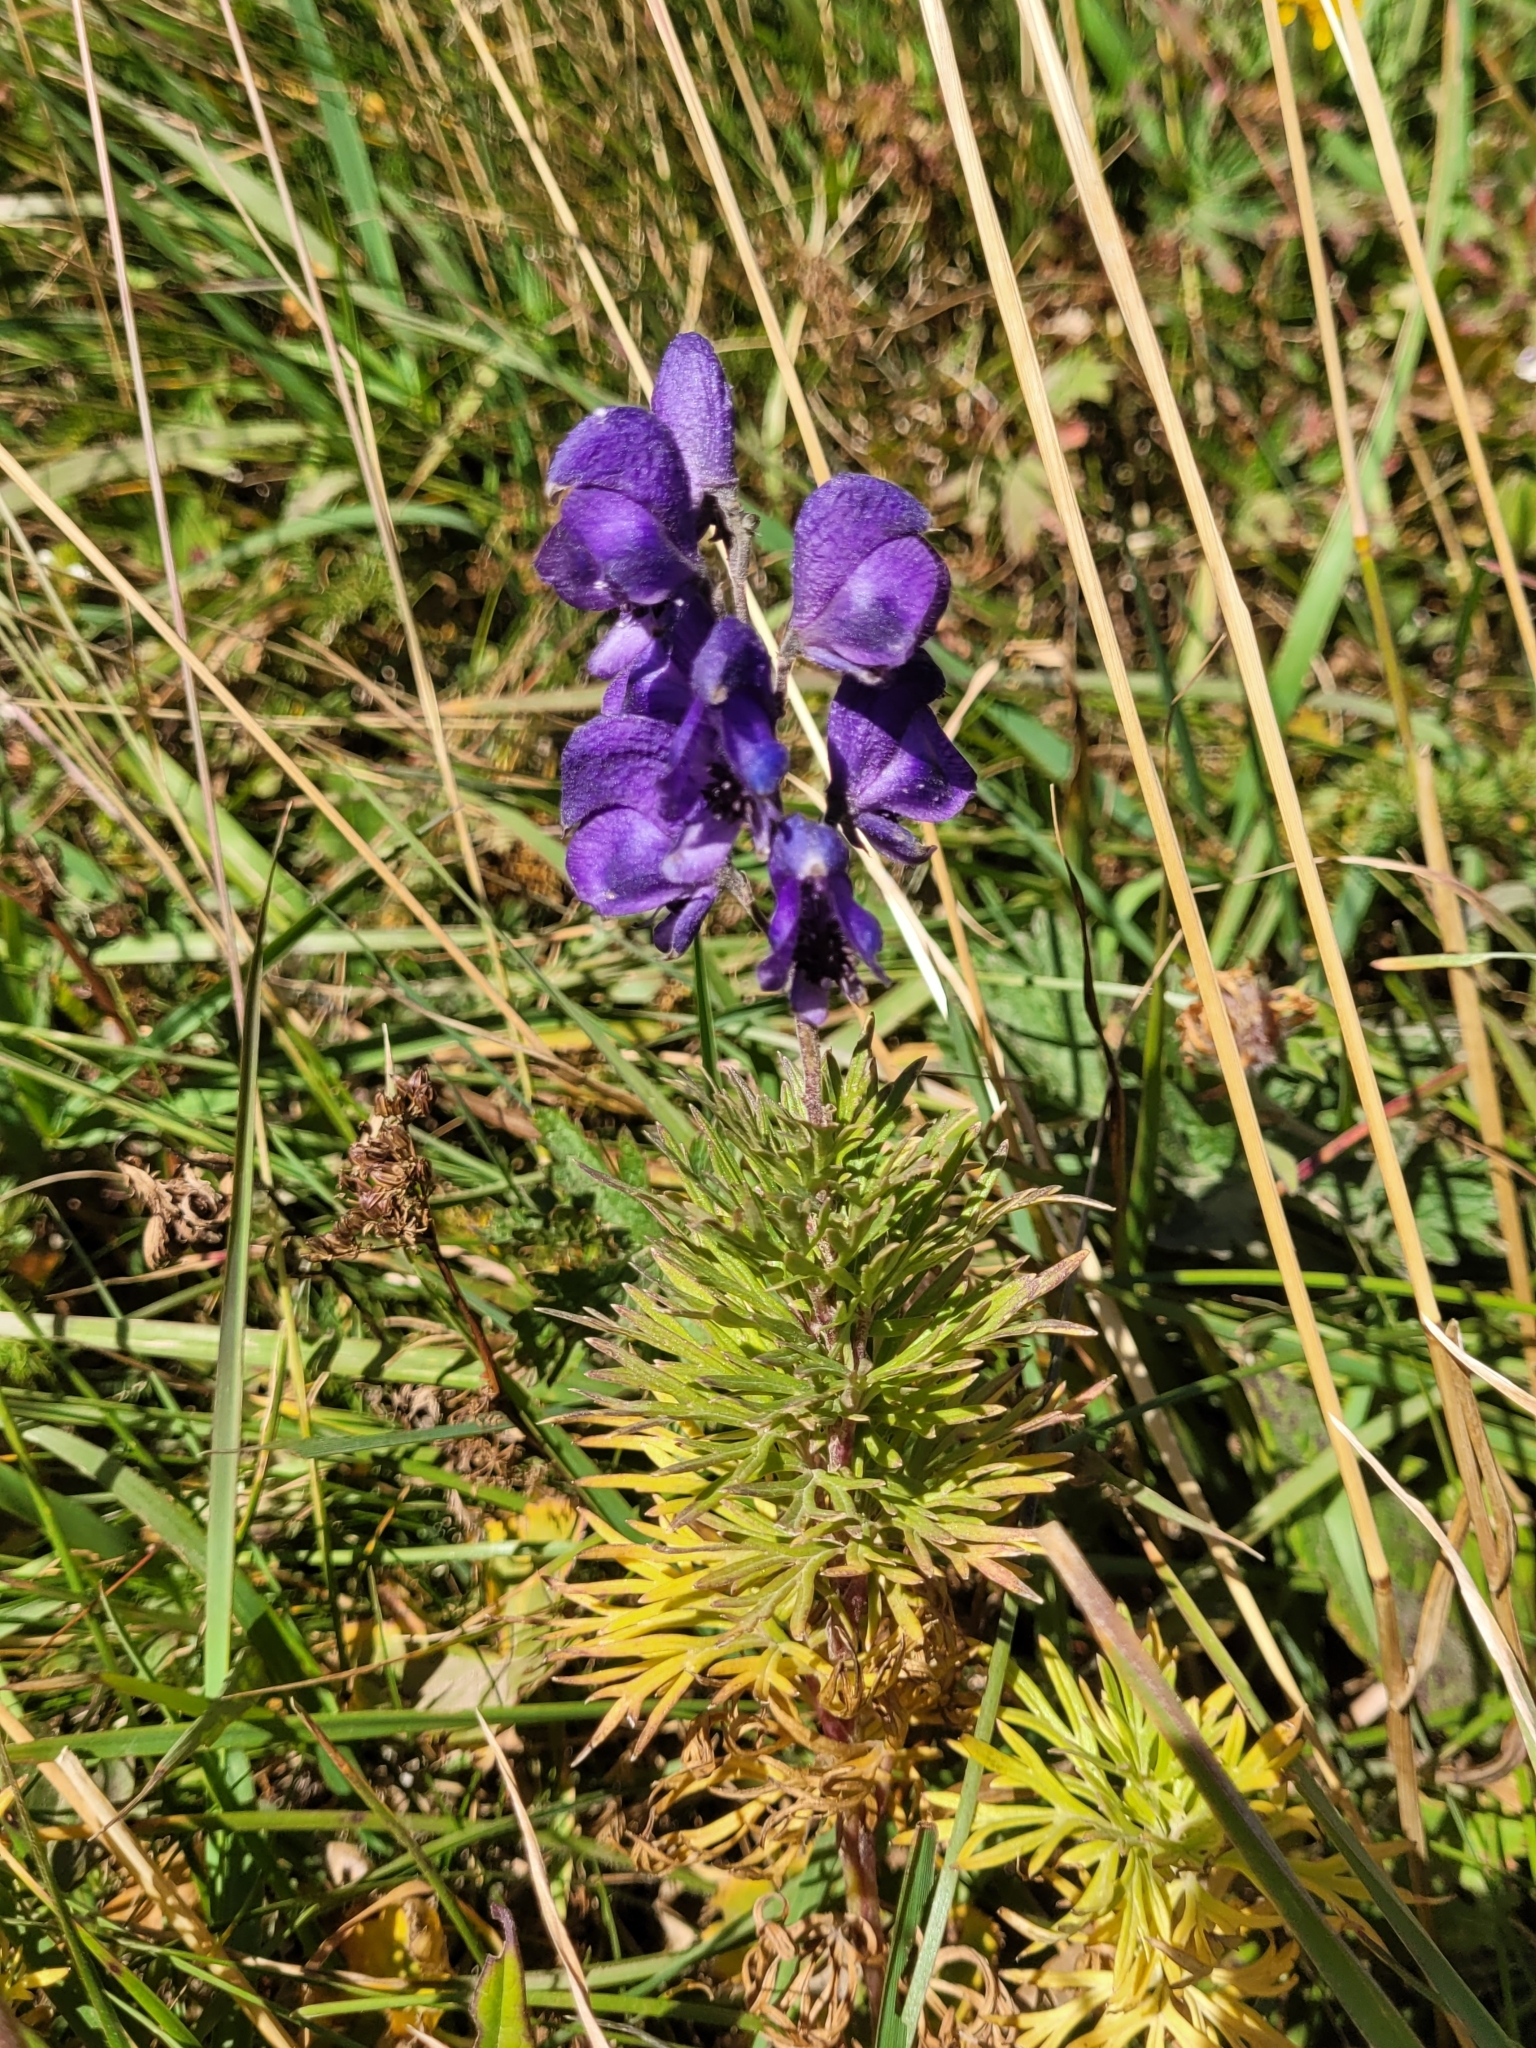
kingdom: Plantae
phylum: Tracheophyta
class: Magnoliopsida
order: Ranunculales
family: Ranunculaceae
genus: Aconitum
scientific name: Aconitum napellus
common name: Garden monkshood
